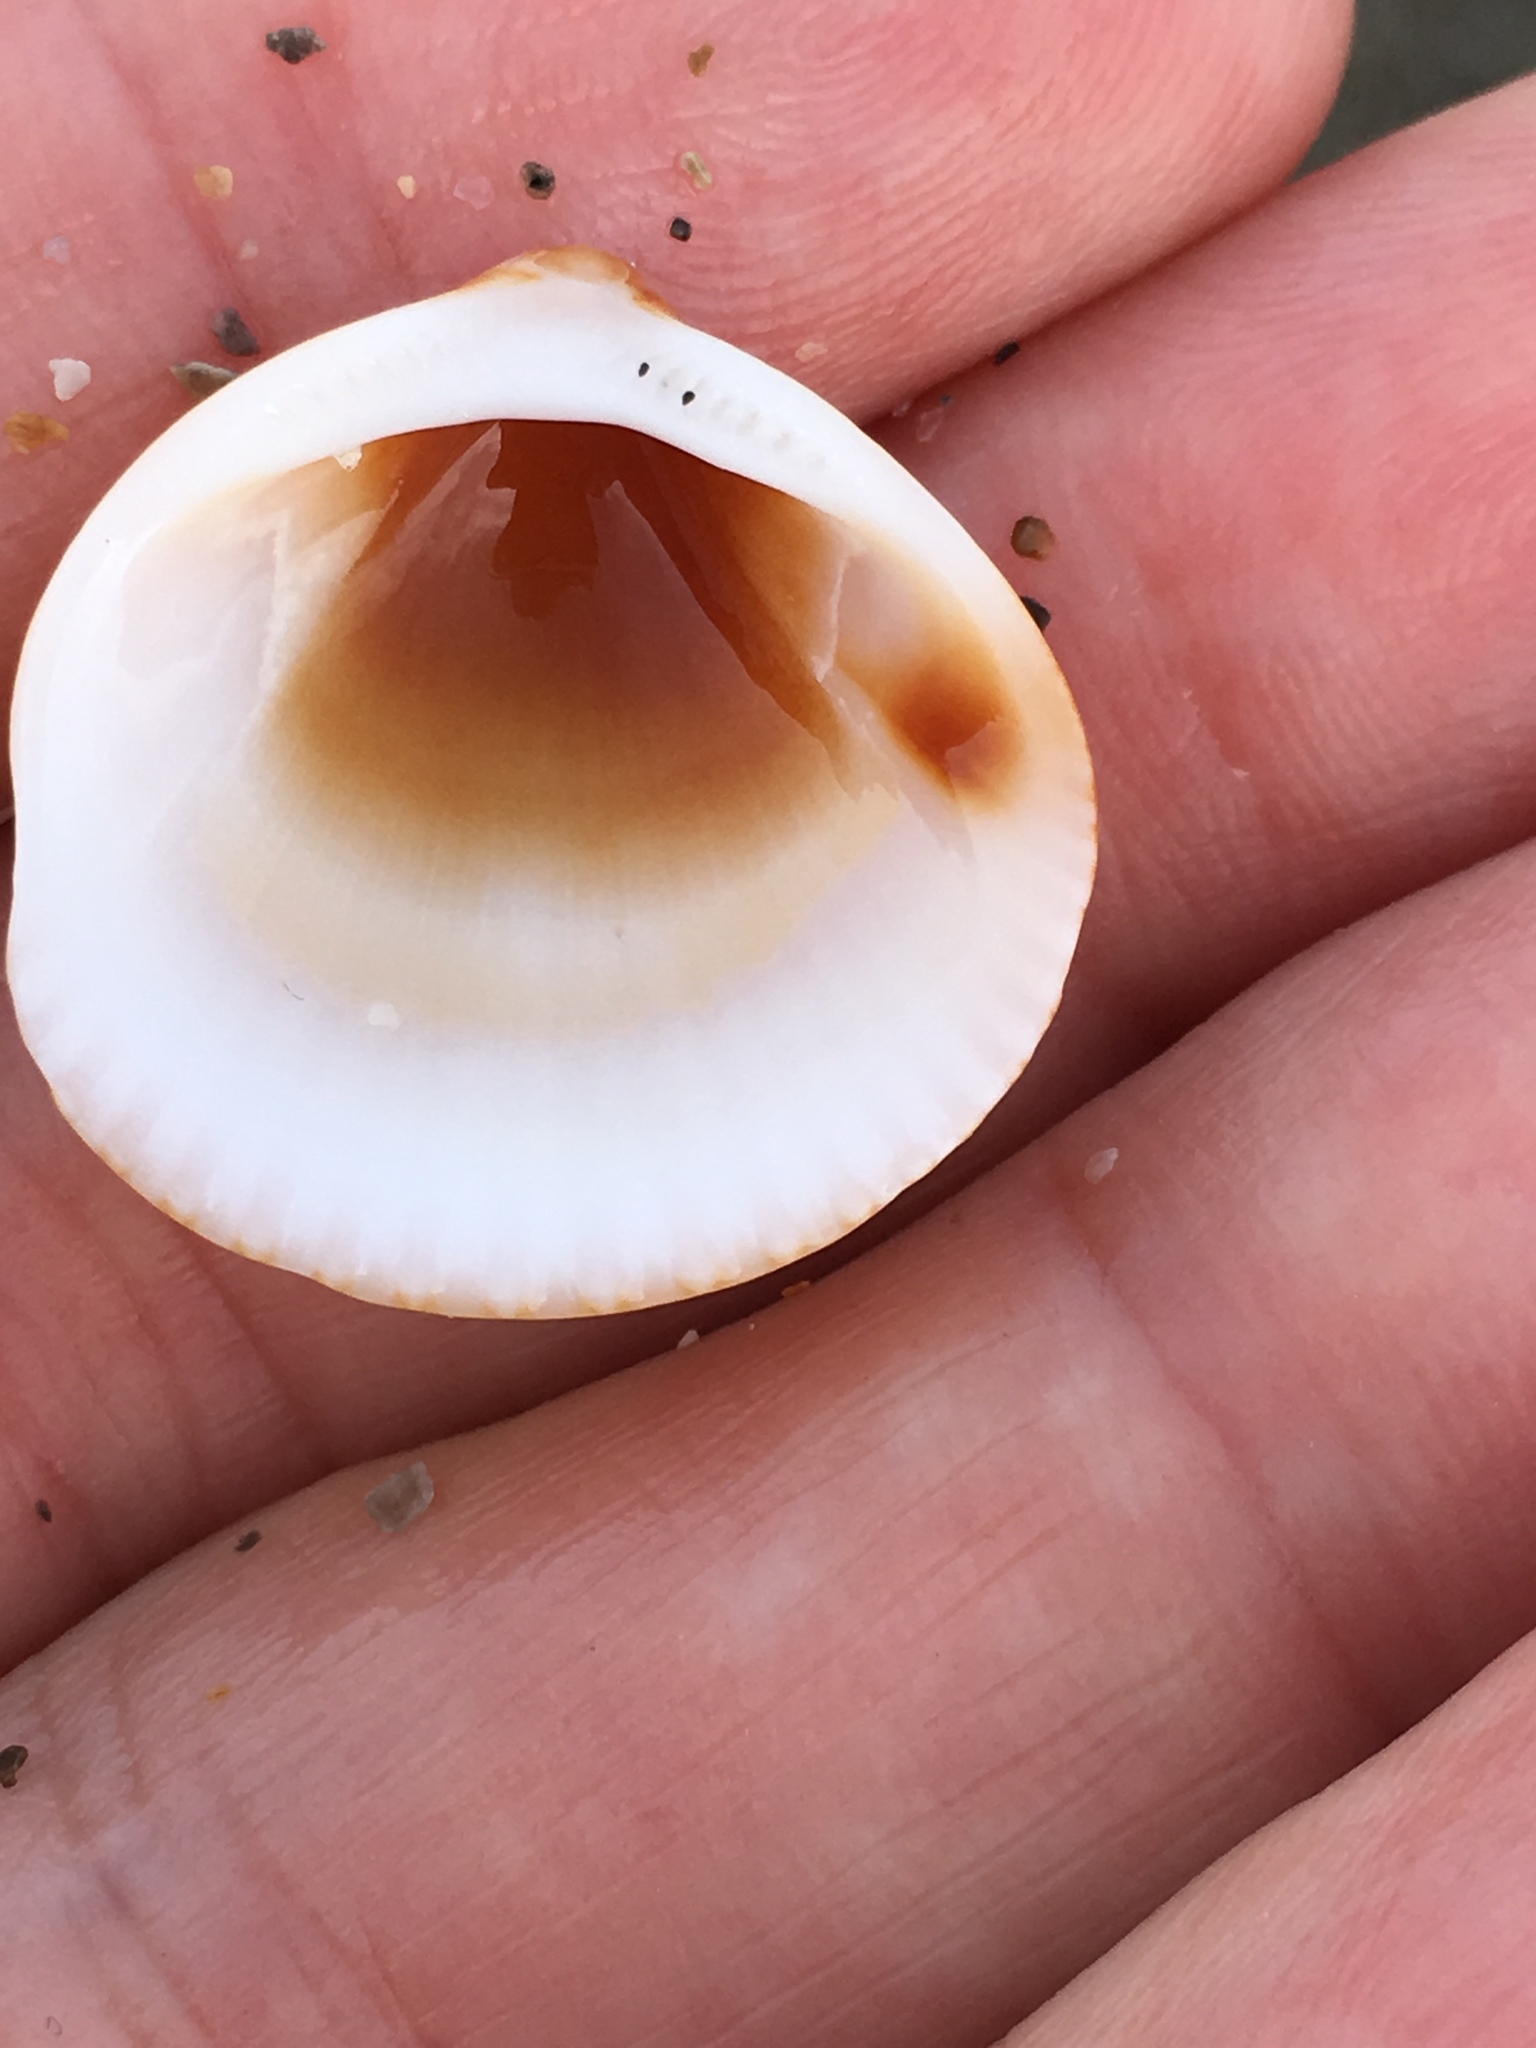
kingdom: Animalia
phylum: Mollusca
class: Bivalvia
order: Arcida
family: Glycymerididae
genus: Glycymeris
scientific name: Glycymeris spectralis
